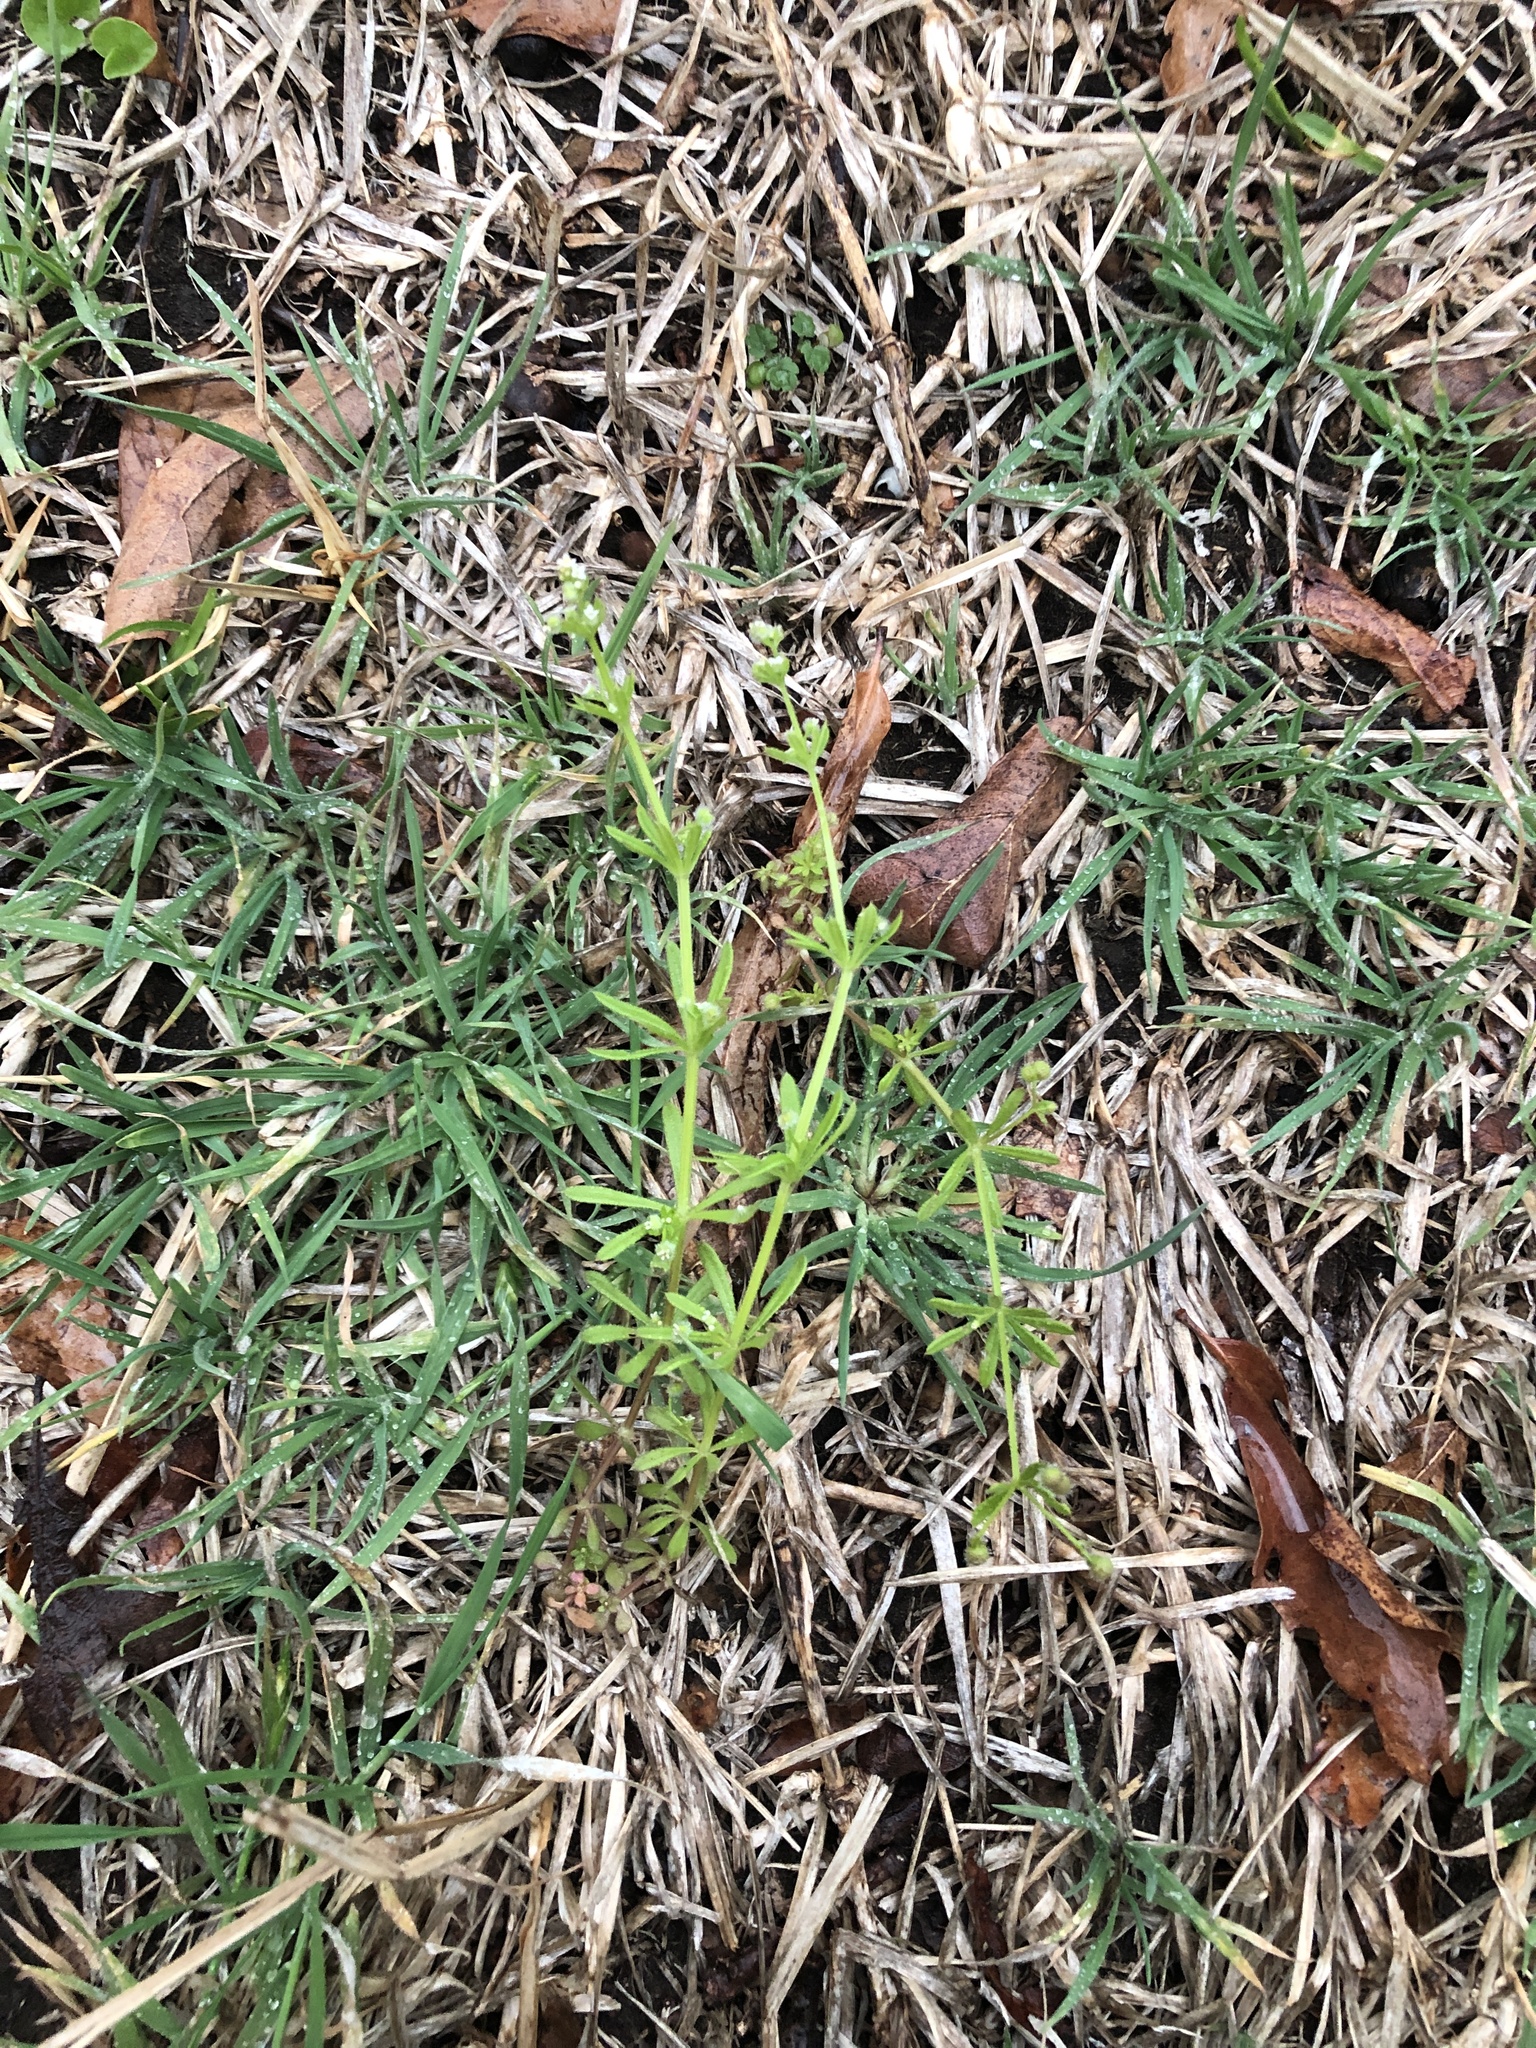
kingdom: Plantae
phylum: Tracheophyta
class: Magnoliopsida
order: Gentianales
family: Rubiaceae
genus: Galium
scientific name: Galium aparine
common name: Cleavers
